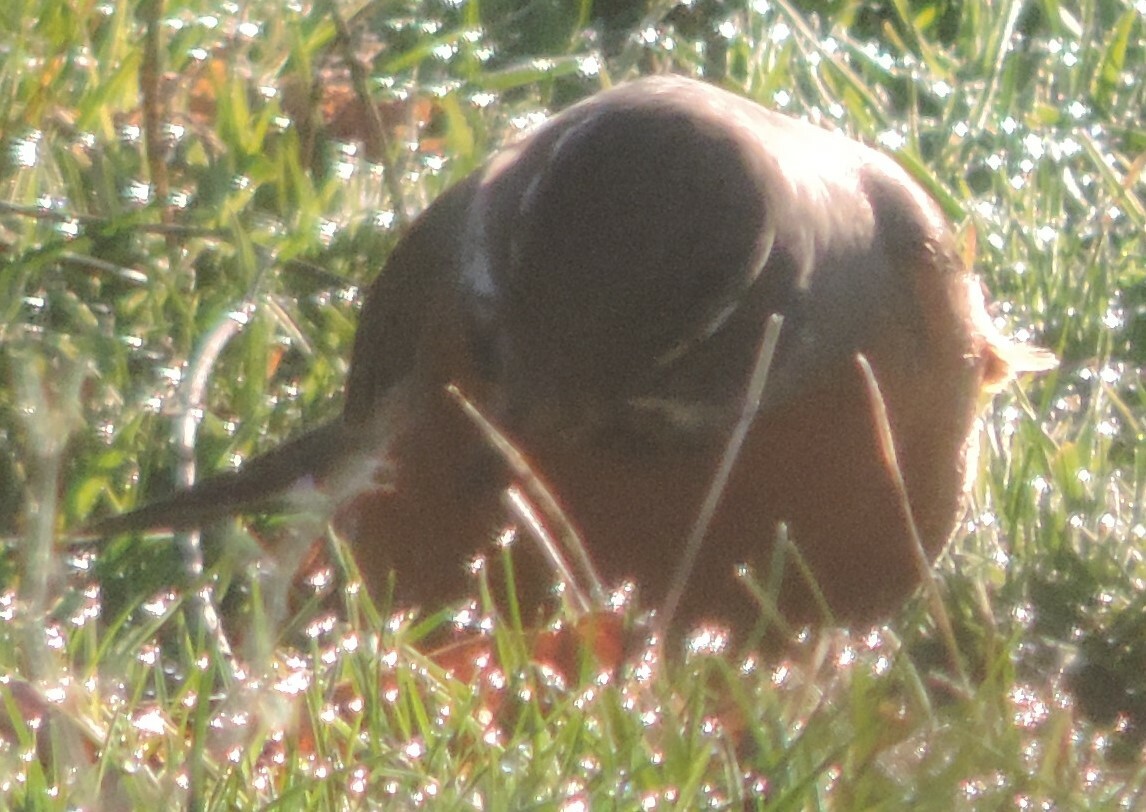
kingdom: Animalia
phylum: Chordata
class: Aves
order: Passeriformes
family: Turdidae
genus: Turdus
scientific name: Turdus migratorius
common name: American robin
